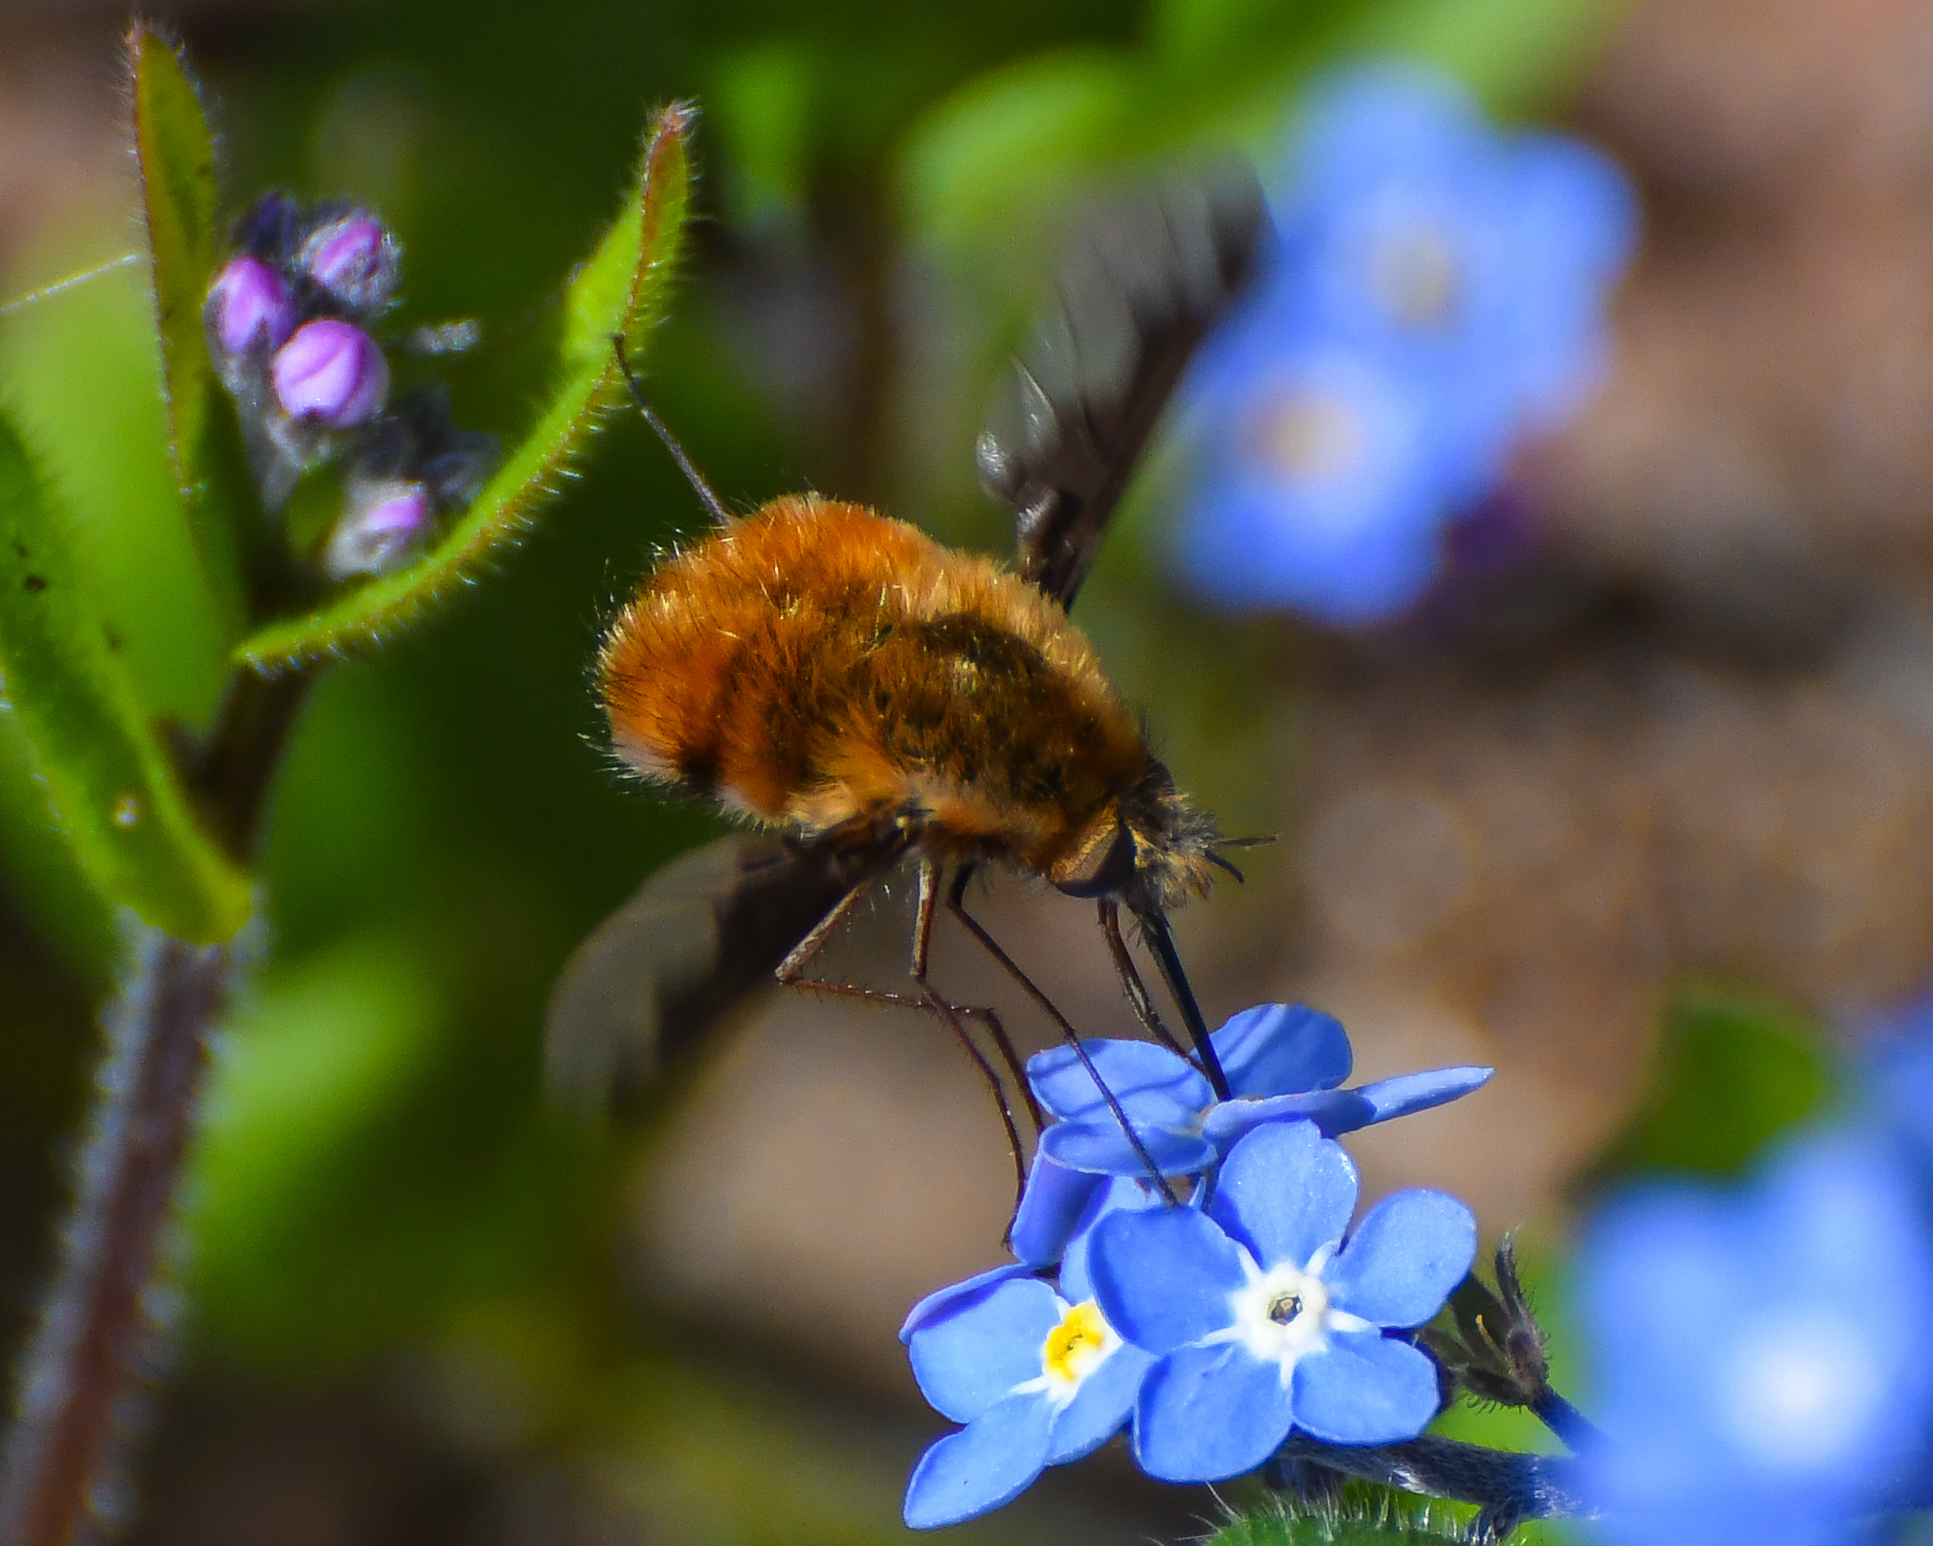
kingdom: Animalia
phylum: Arthropoda
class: Insecta
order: Diptera
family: Bombyliidae
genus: Bombylius
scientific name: Bombylius major
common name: Bee fly
